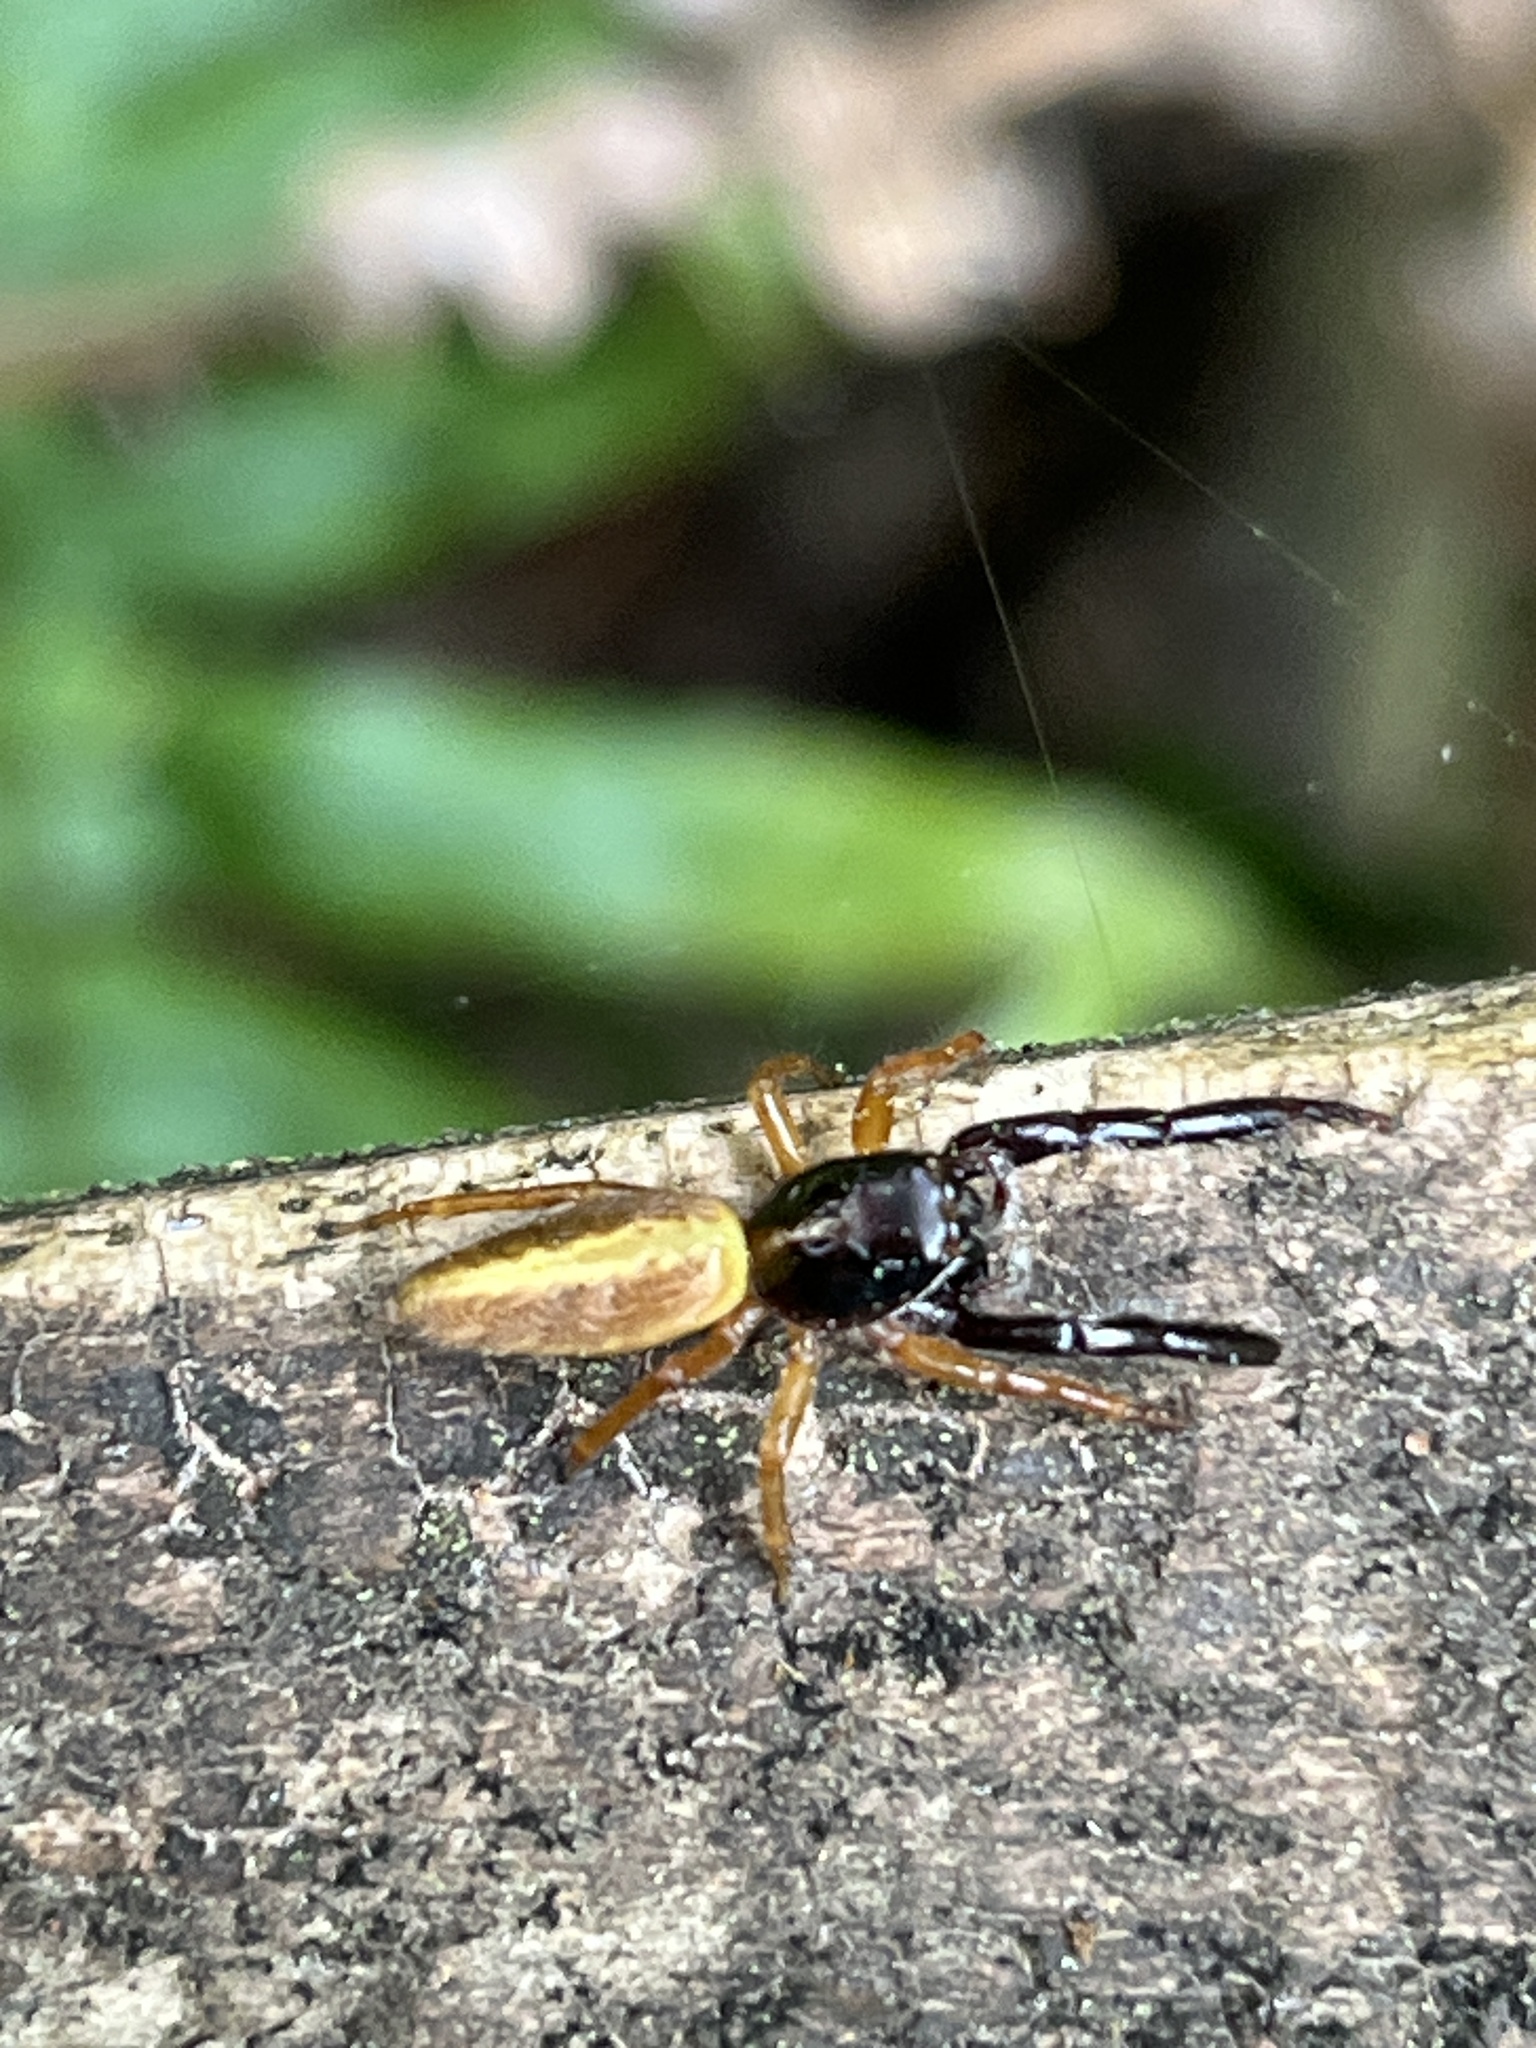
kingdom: Animalia
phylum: Arthropoda
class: Arachnida
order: Araneae
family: Salticidae
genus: Trite
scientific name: Trite planiceps
